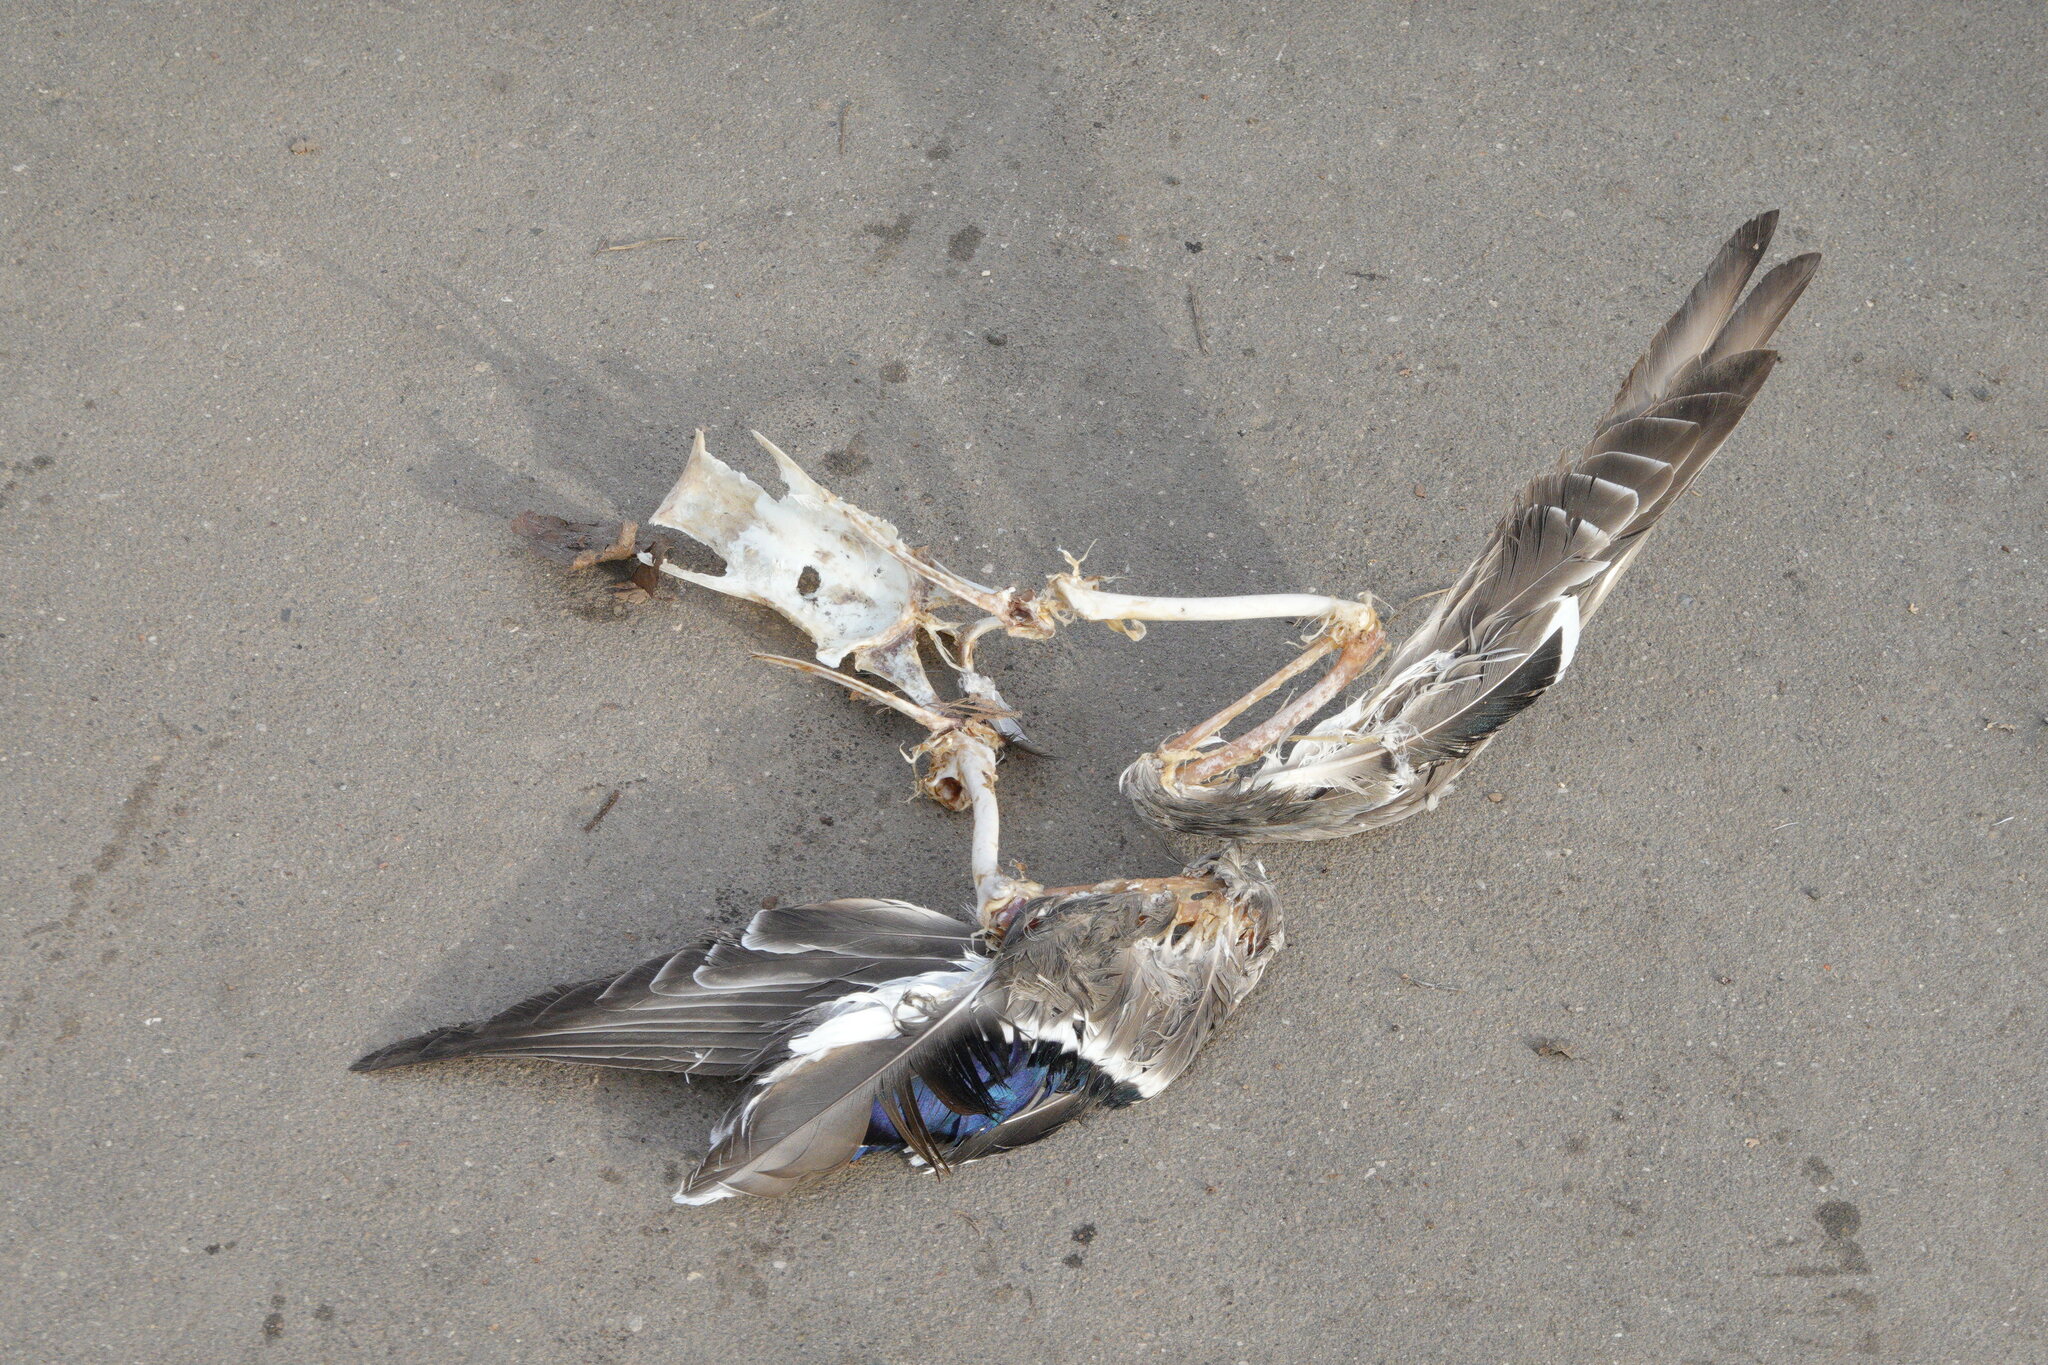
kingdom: Animalia
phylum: Chordata
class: Aves
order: Anseriformes
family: Anatidae
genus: Anas
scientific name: Anas platyrhynchos
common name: Mallard
